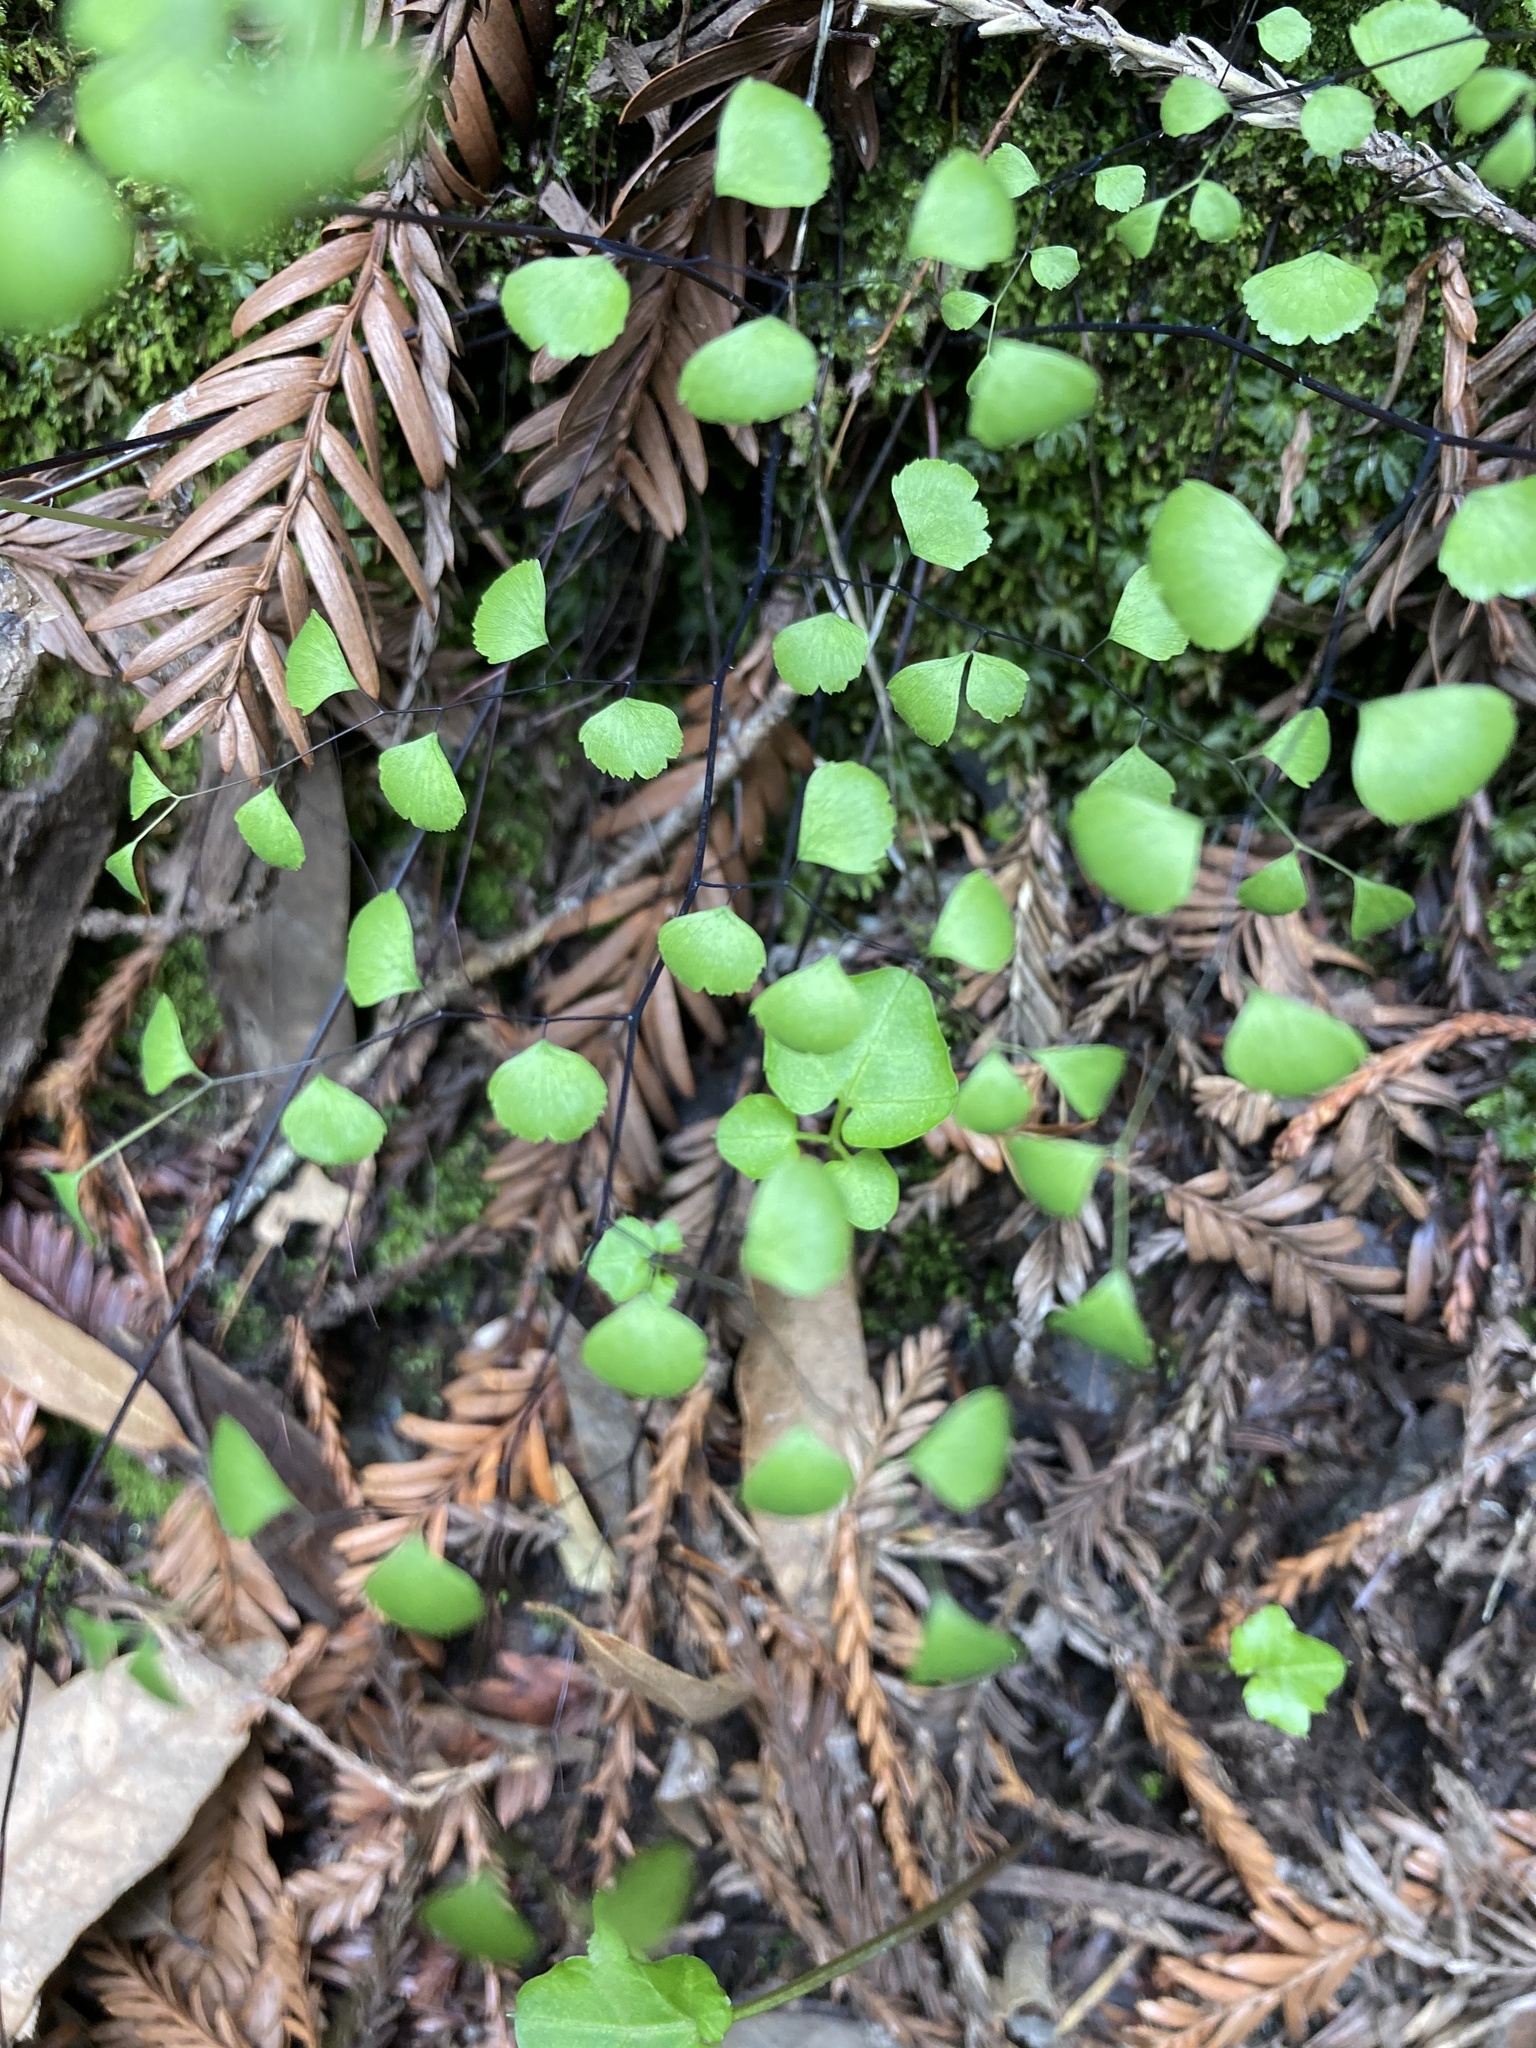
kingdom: Plantae
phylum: Tracheophyta
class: Polypodiopsida
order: Polypodiales
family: Pteridaceae
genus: Adiantum
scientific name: Adiantum jordanii
